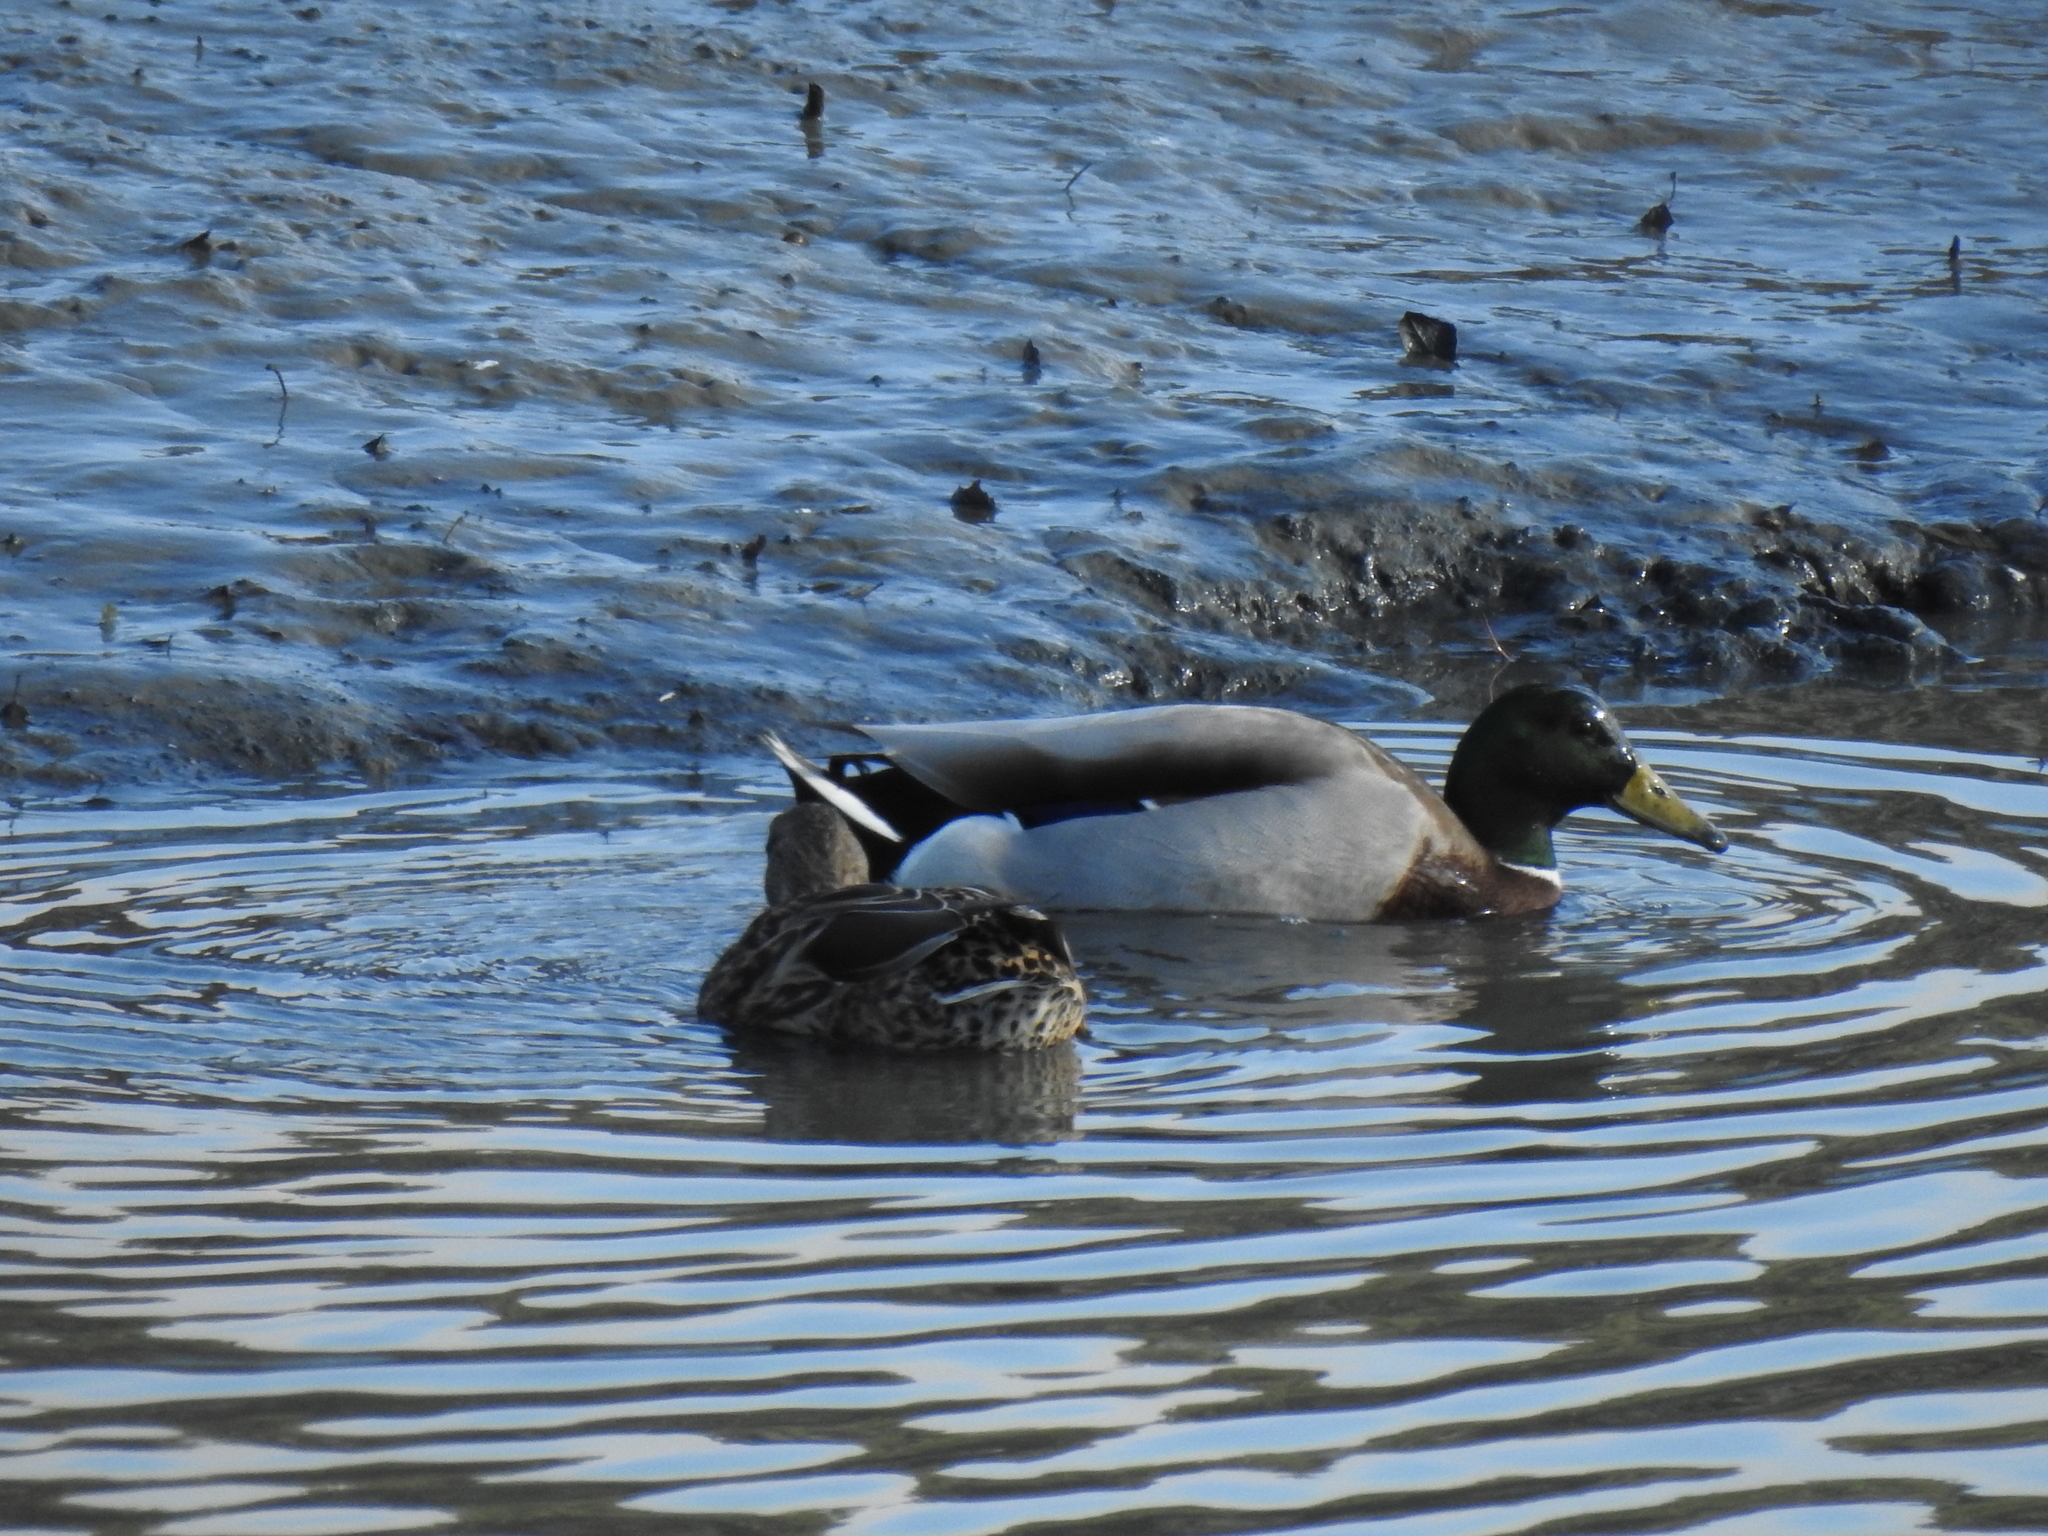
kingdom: Animalia
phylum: Chordata
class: Aves
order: Anseriformes
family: Anatidae
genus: Anas
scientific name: Anas platyrhynchos
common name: Mallard
